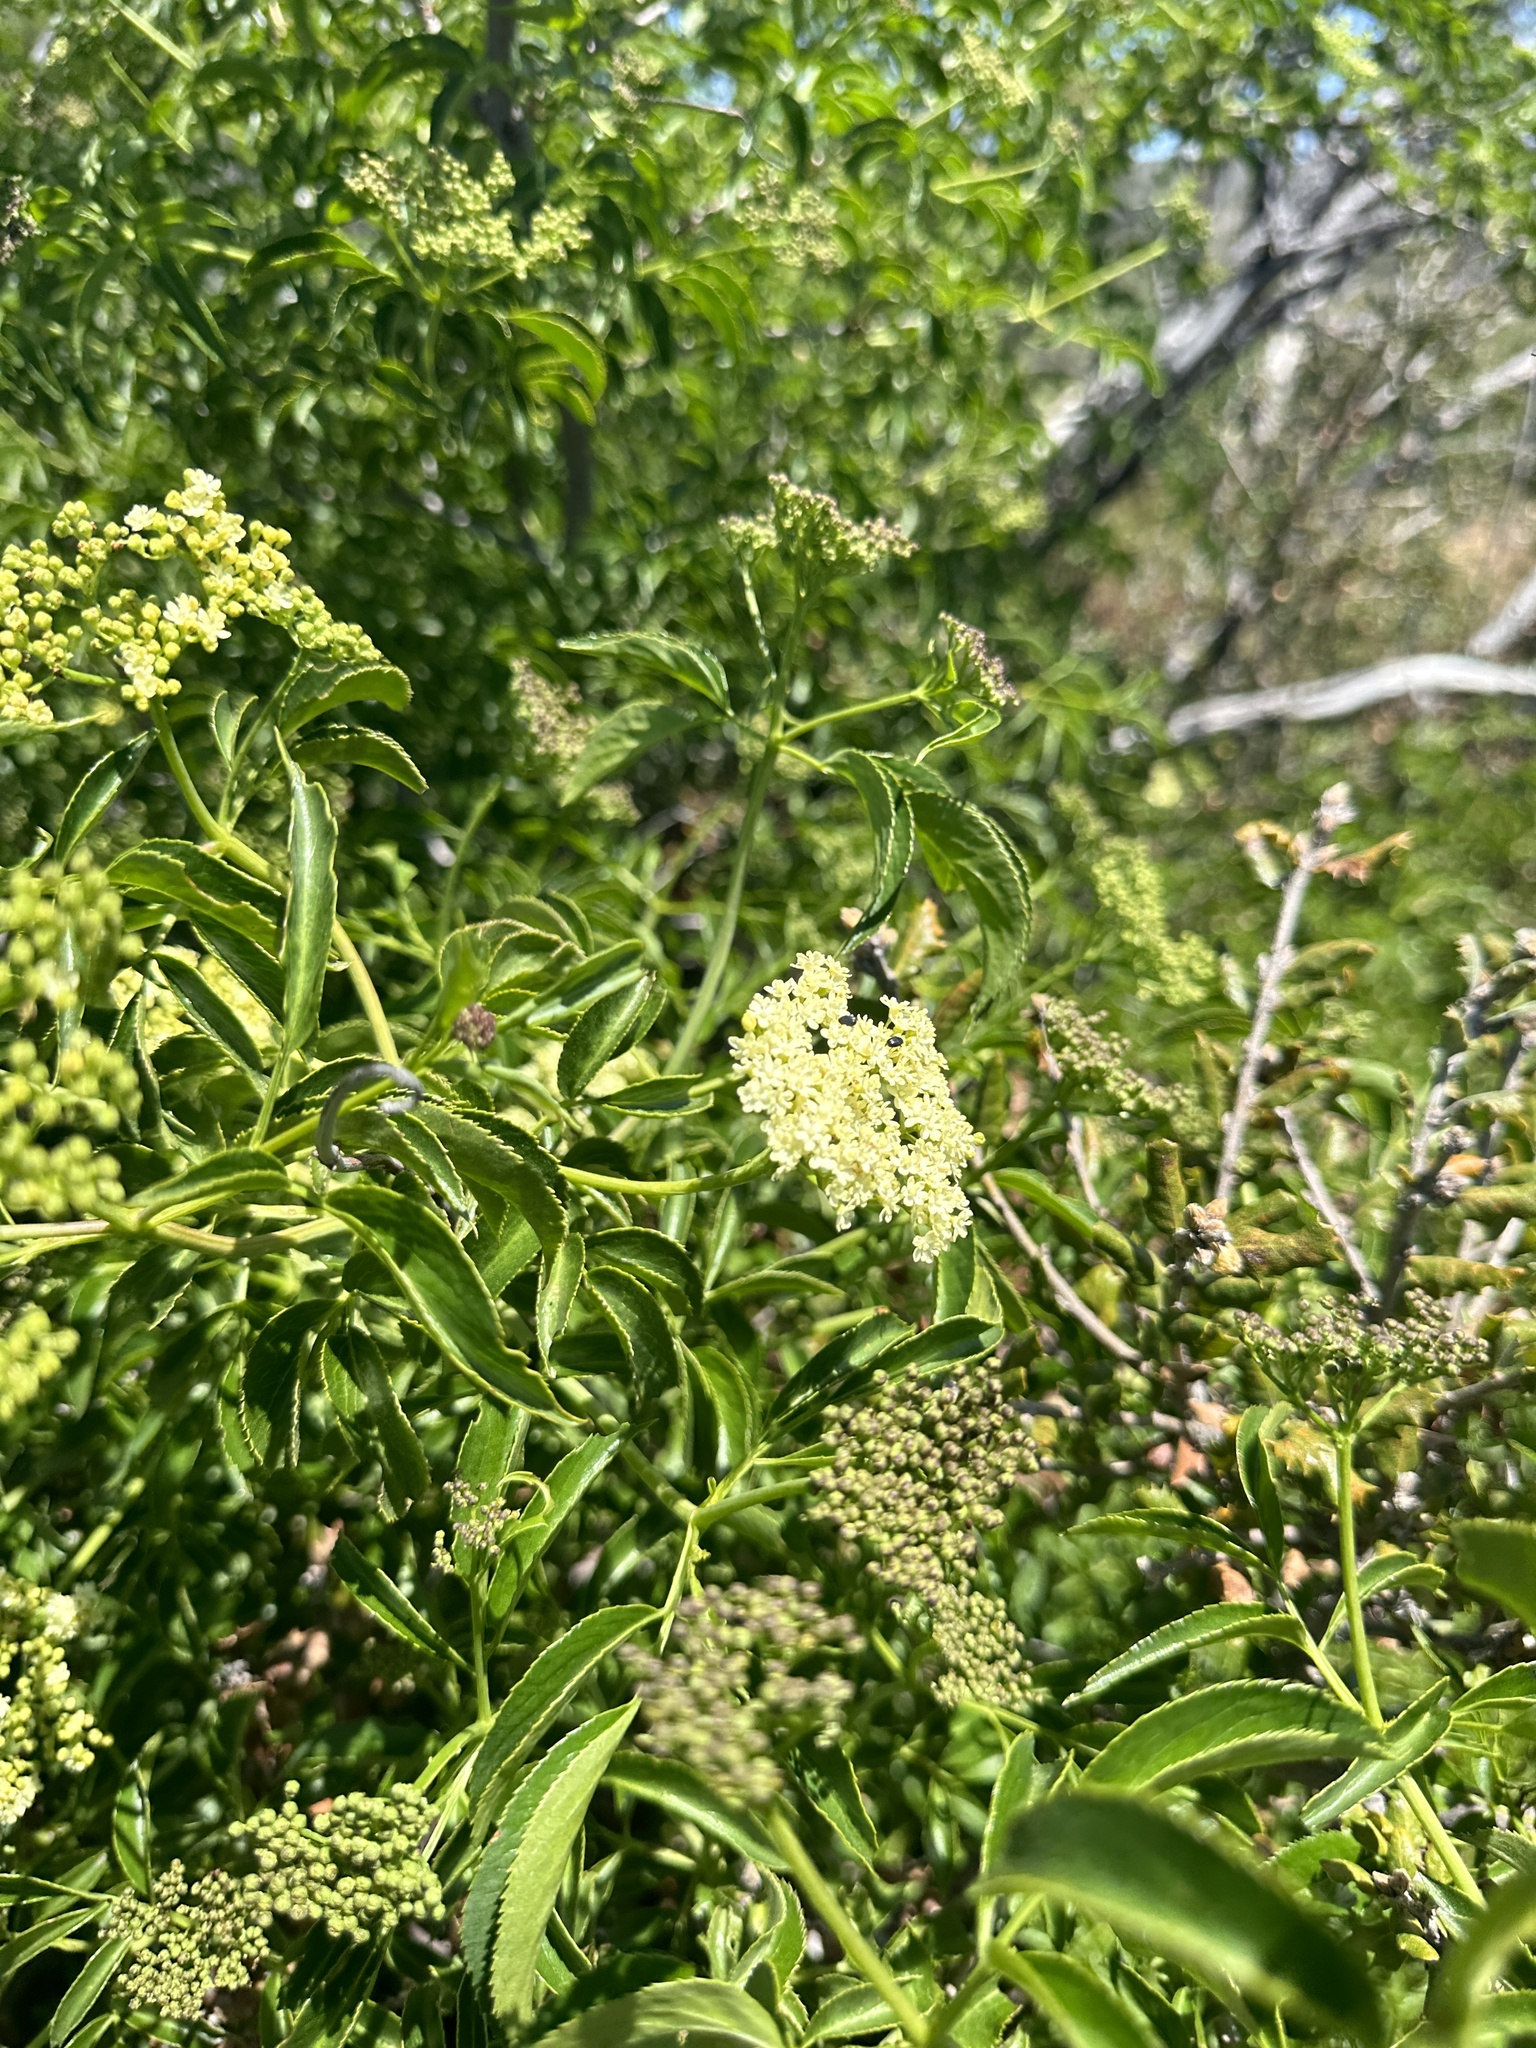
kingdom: Plantae
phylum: Tracheophyta
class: Magnoliopsida
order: Dipsacales
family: Viburnaceae
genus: Sambucus
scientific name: Sambucus cerulea
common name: Blue elder
